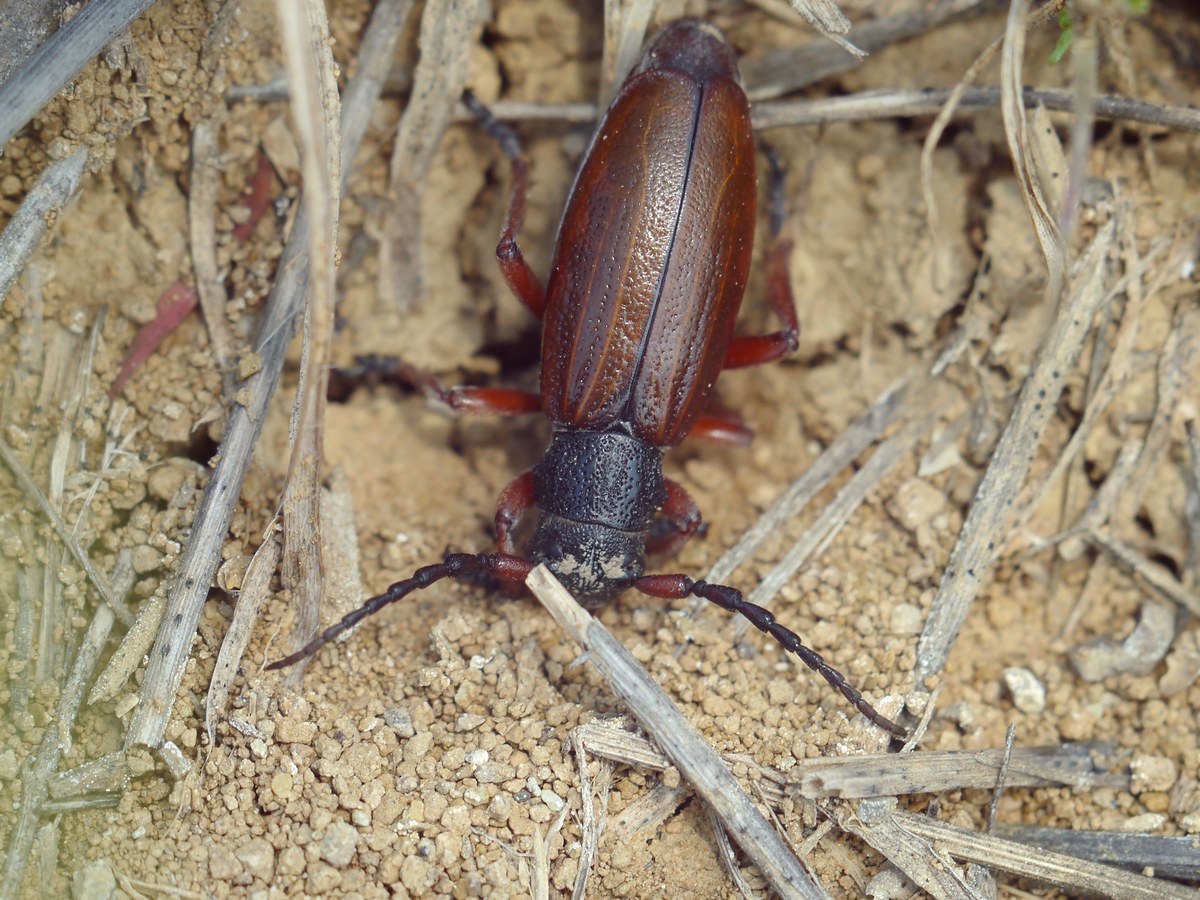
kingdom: Animalia
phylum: Arthropoda
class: Insecta
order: Coleoptera
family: Cerambycidae
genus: Dorcadion
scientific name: Dorcadion fulvum
